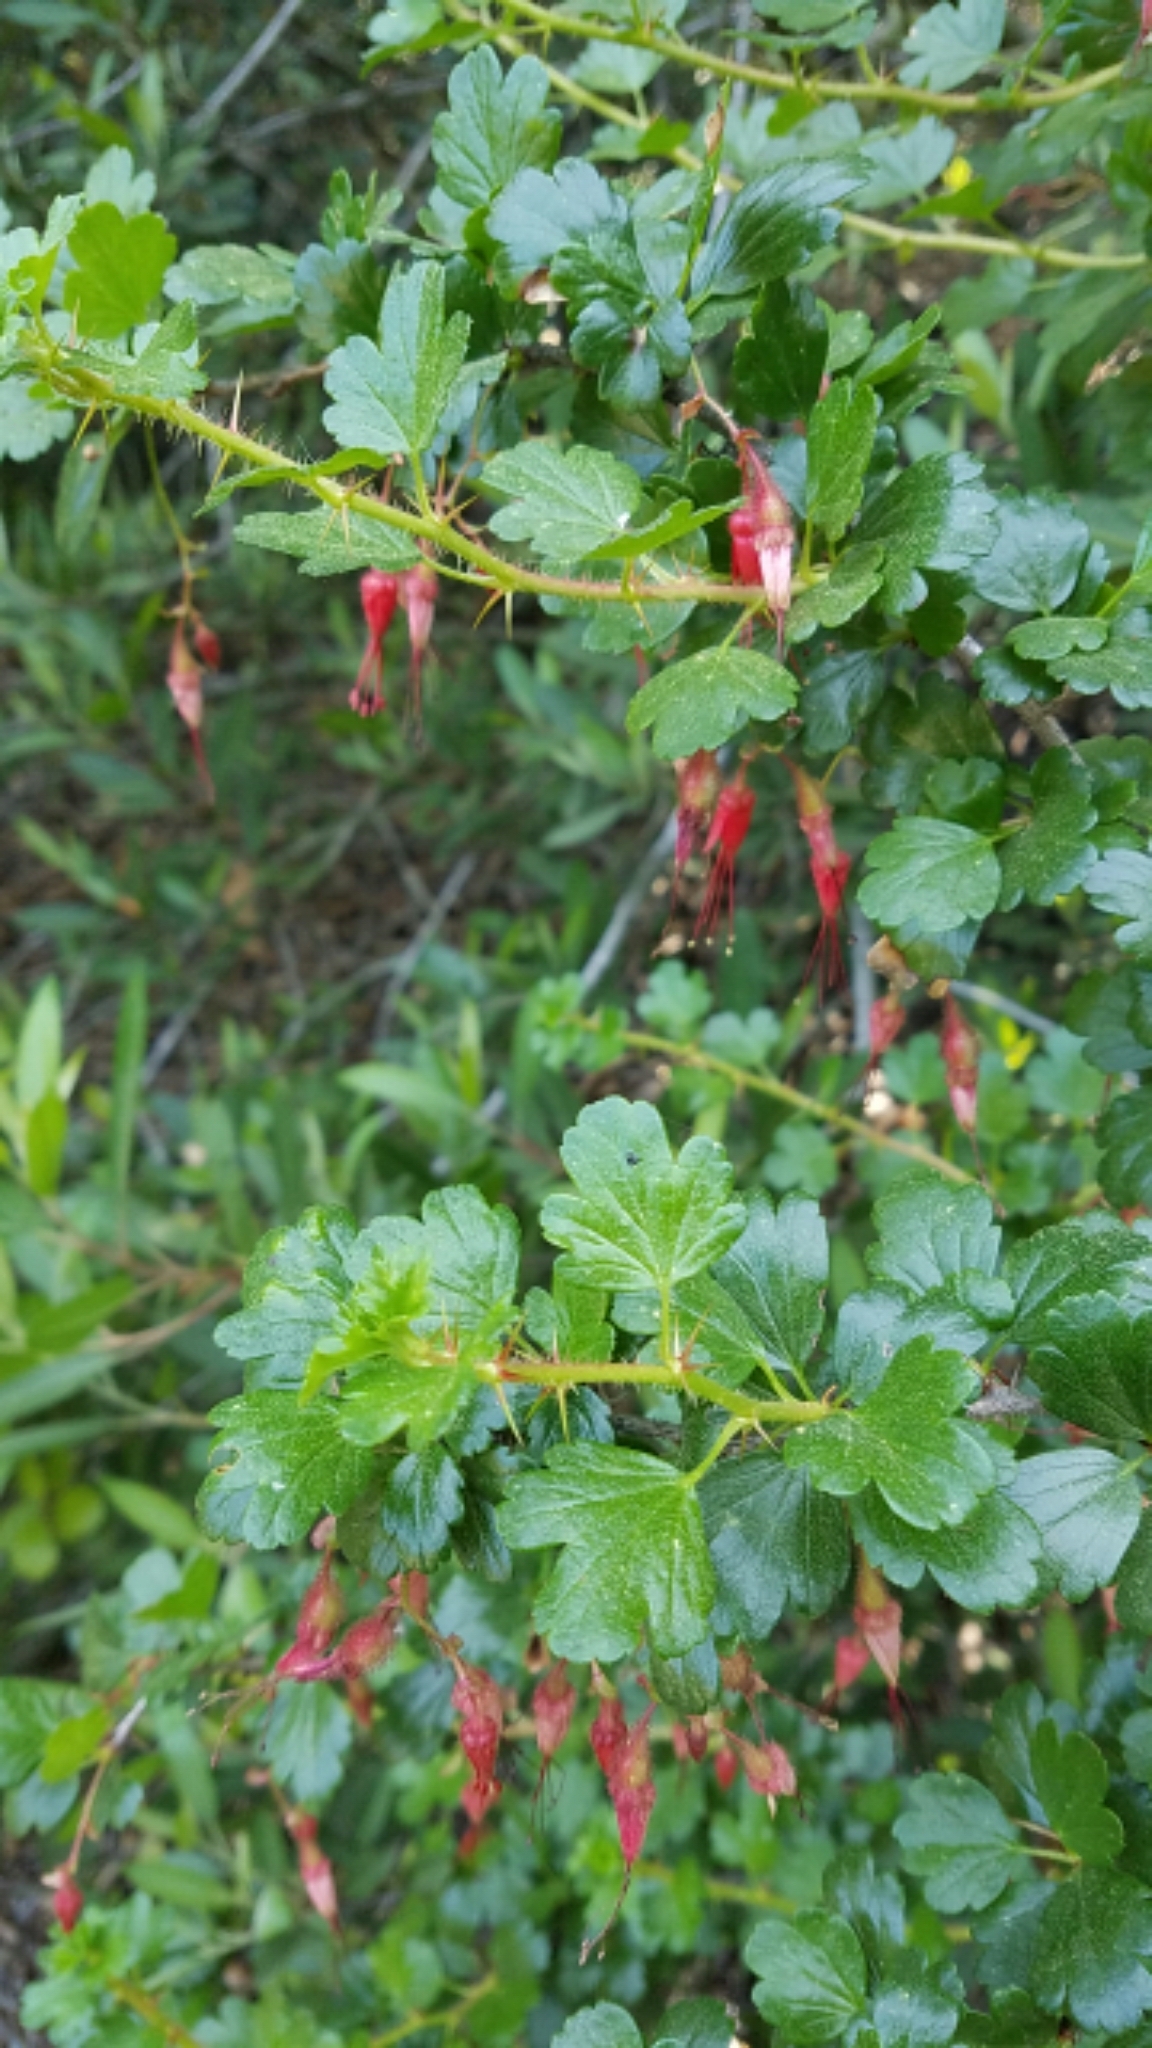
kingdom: Plantae
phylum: Tracheophyta
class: Magnoliopsida
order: Saxifragales
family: Grossulariaceae
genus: Ribes
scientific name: Ribes speciosum
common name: Fuchsia-flower gooseberry
